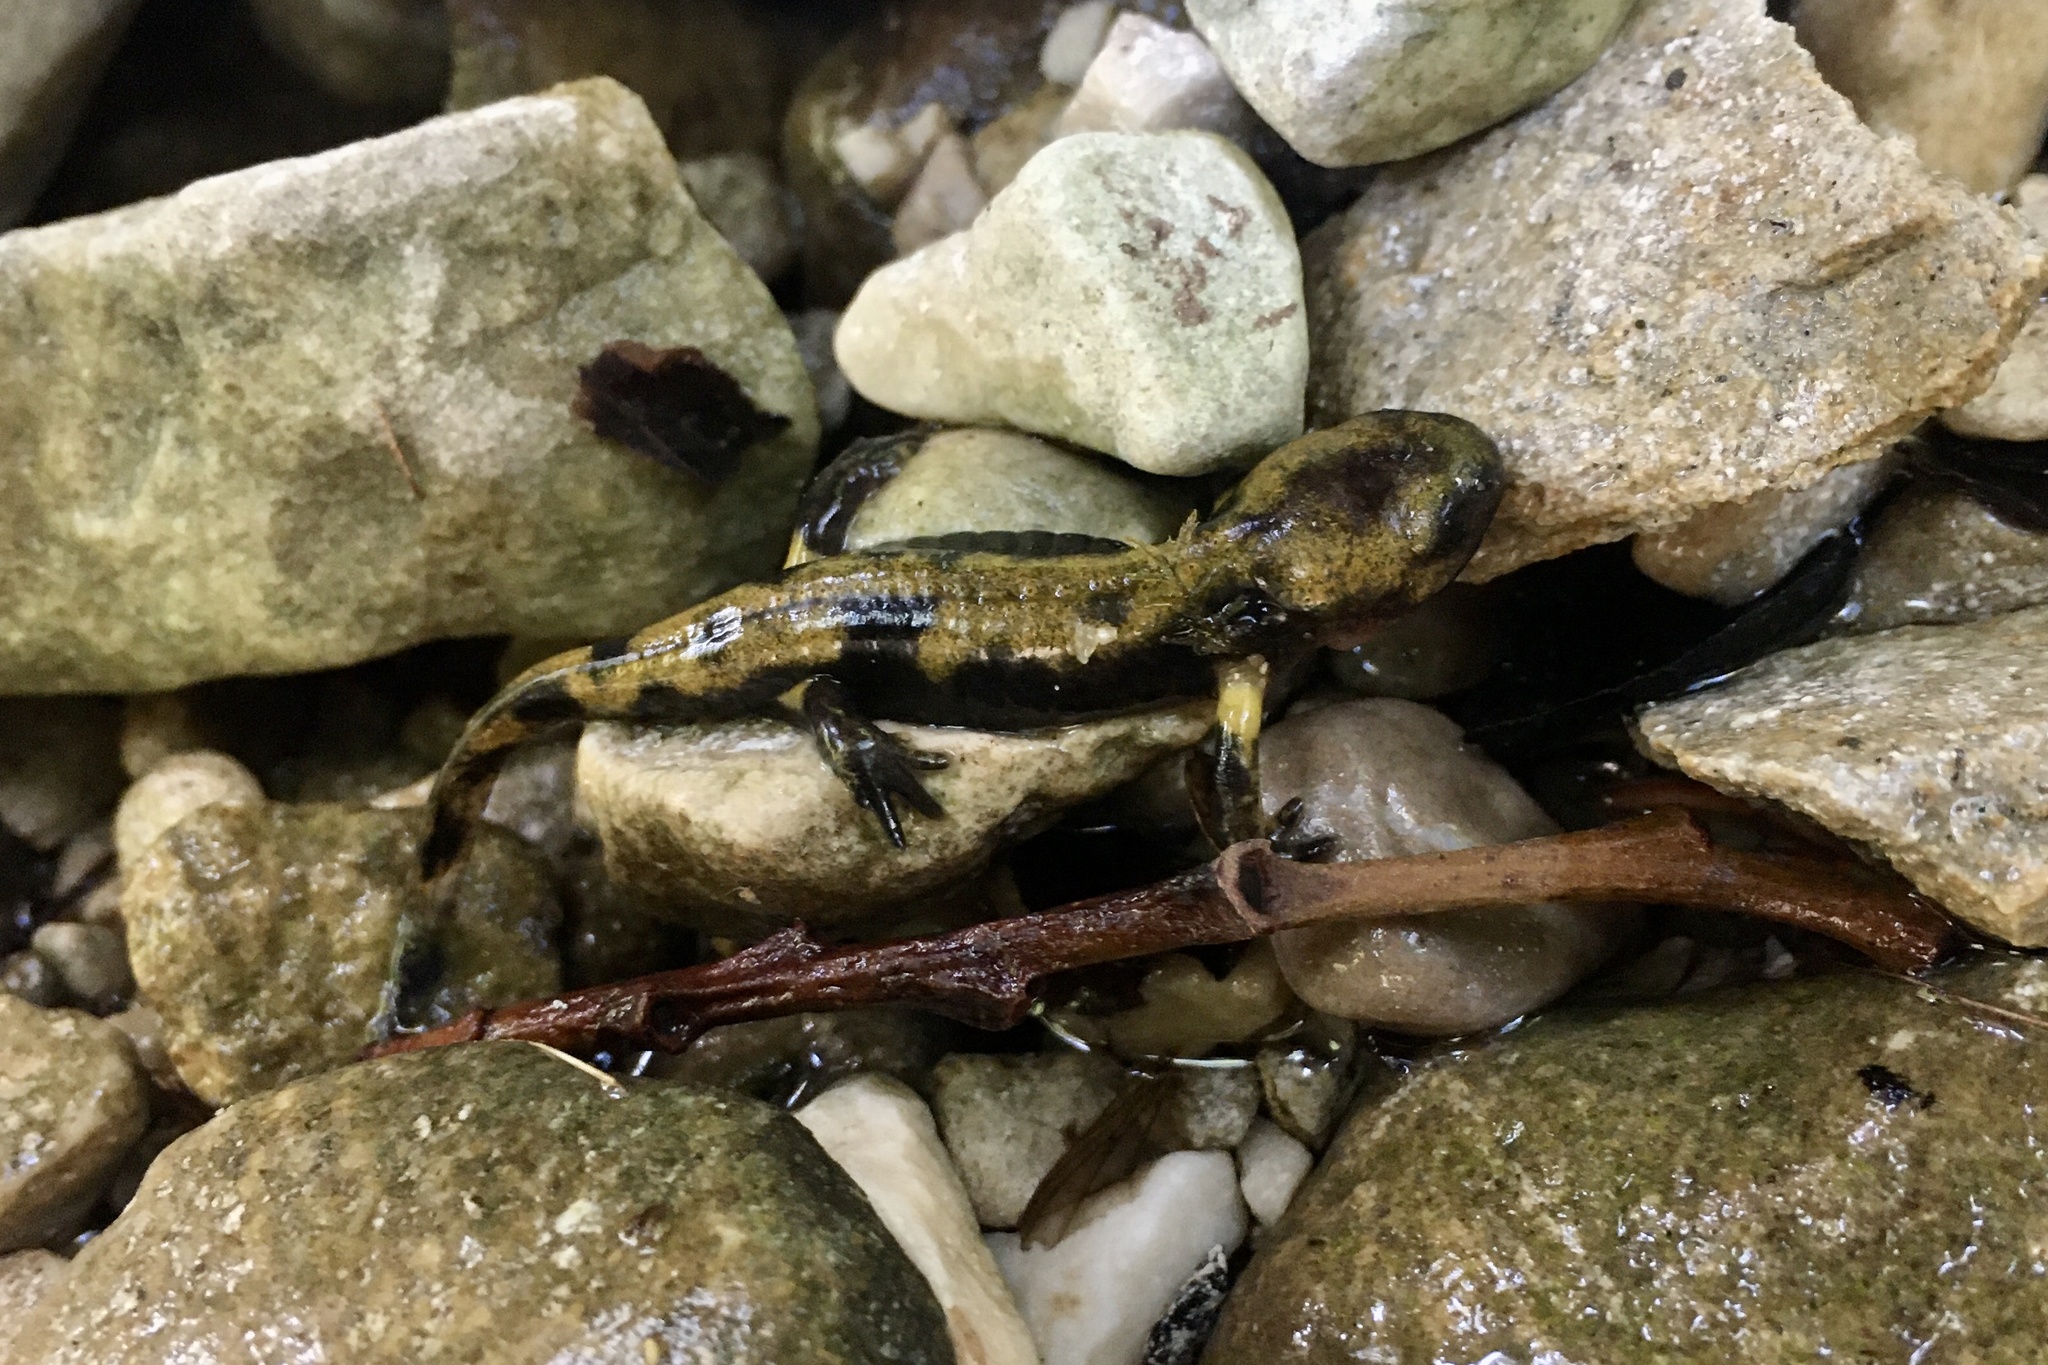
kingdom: Animalia
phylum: Chordata
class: Amphibia
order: Caudata
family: Salamandridae
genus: Salamandra
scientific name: Salamandra salamandra
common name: Fire salamander
